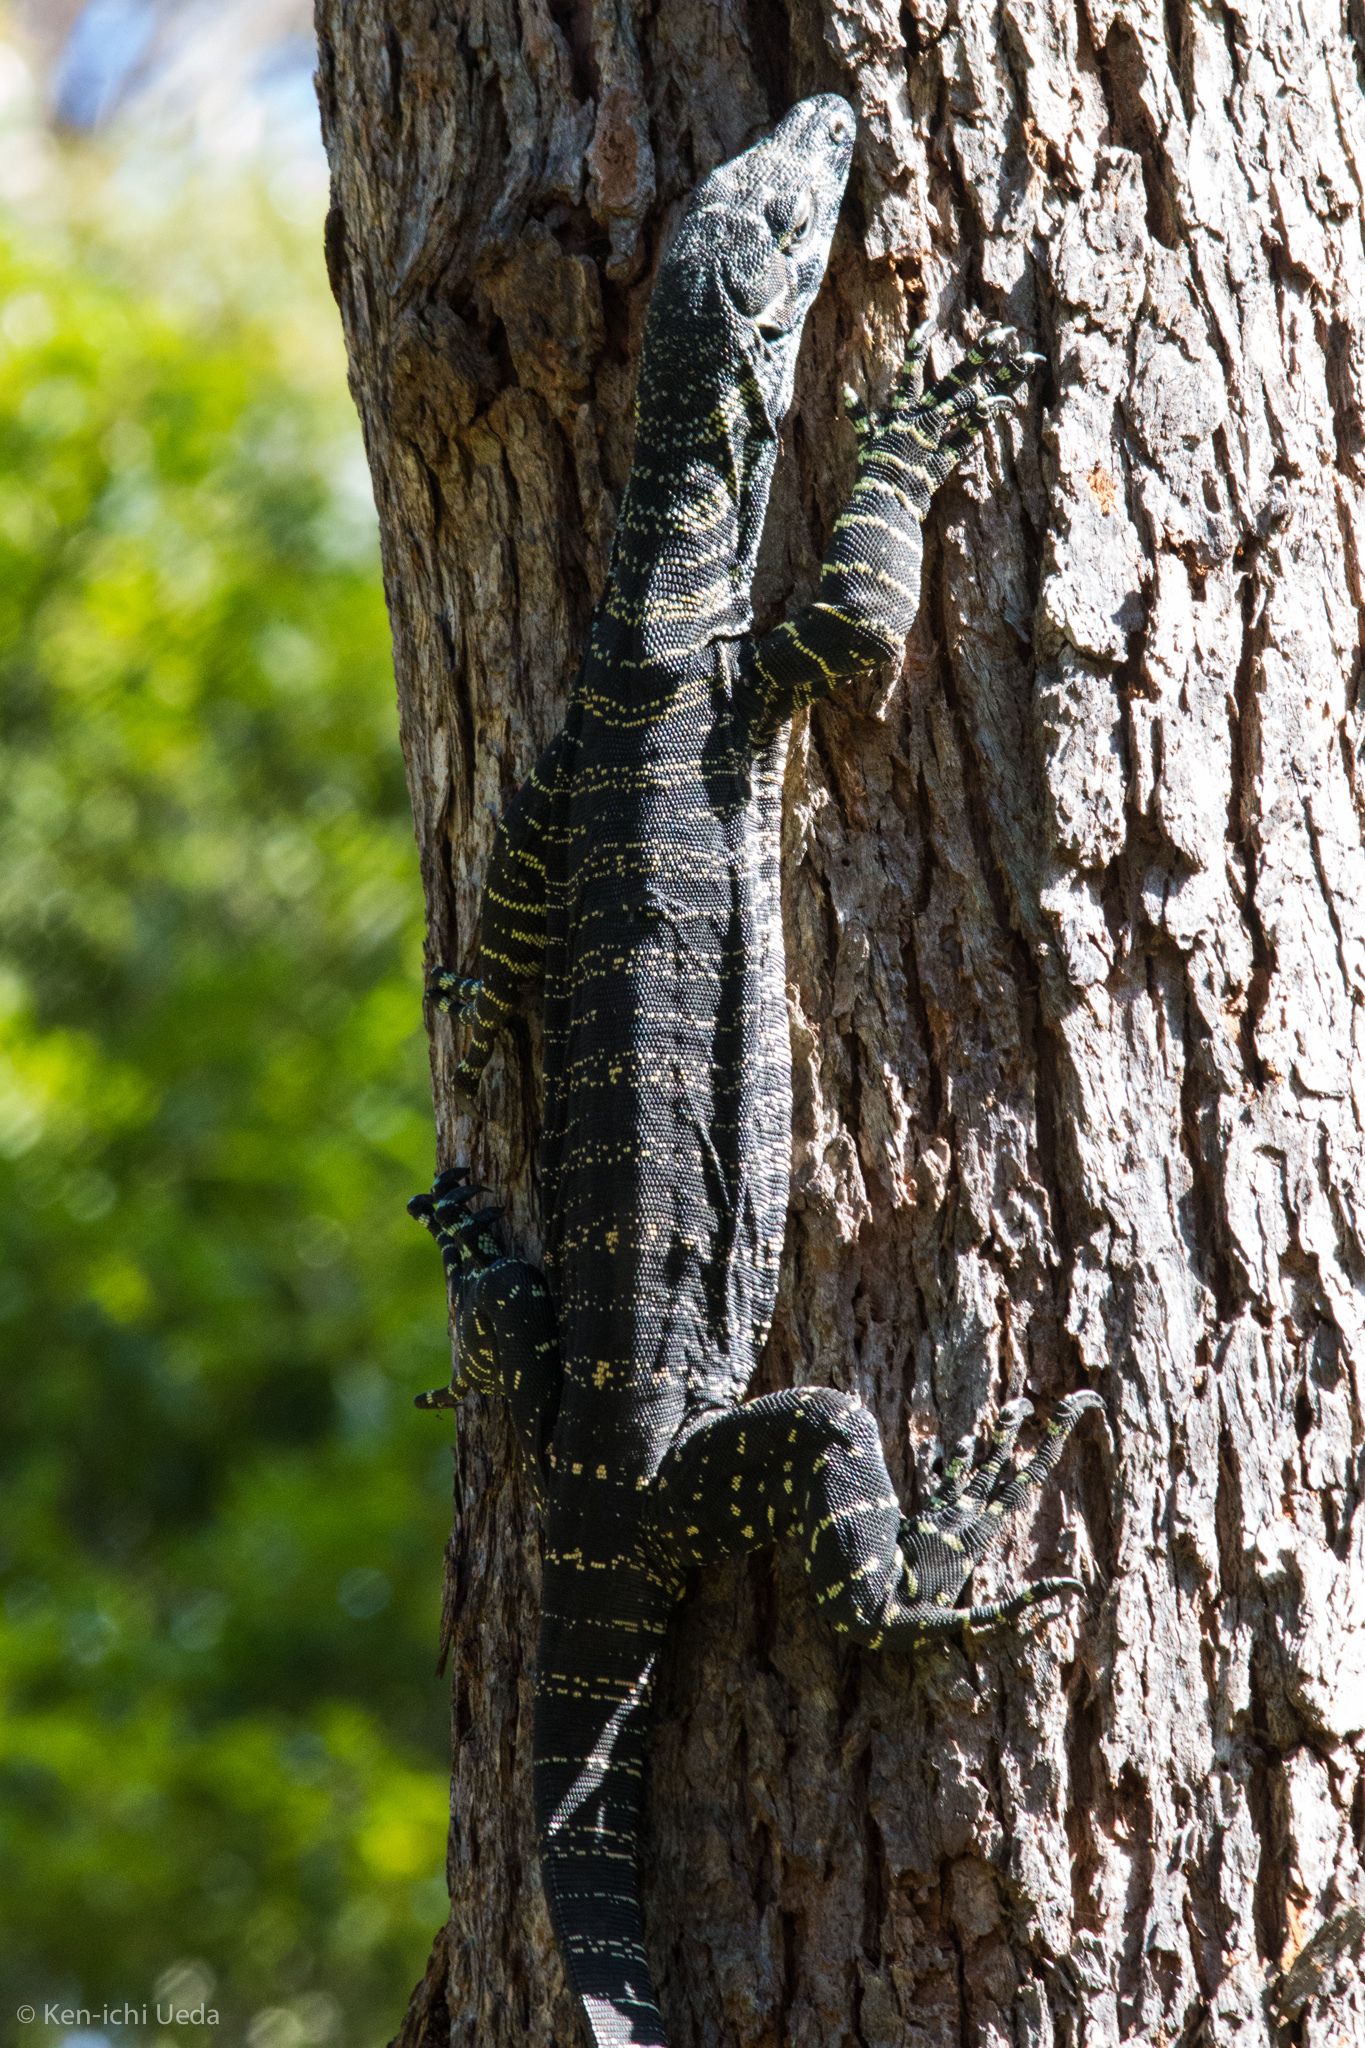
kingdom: Animalia
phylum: Chordata
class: Squamata
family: Varanidae
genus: Varanus
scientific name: Varanus varius
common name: Lace monitor
